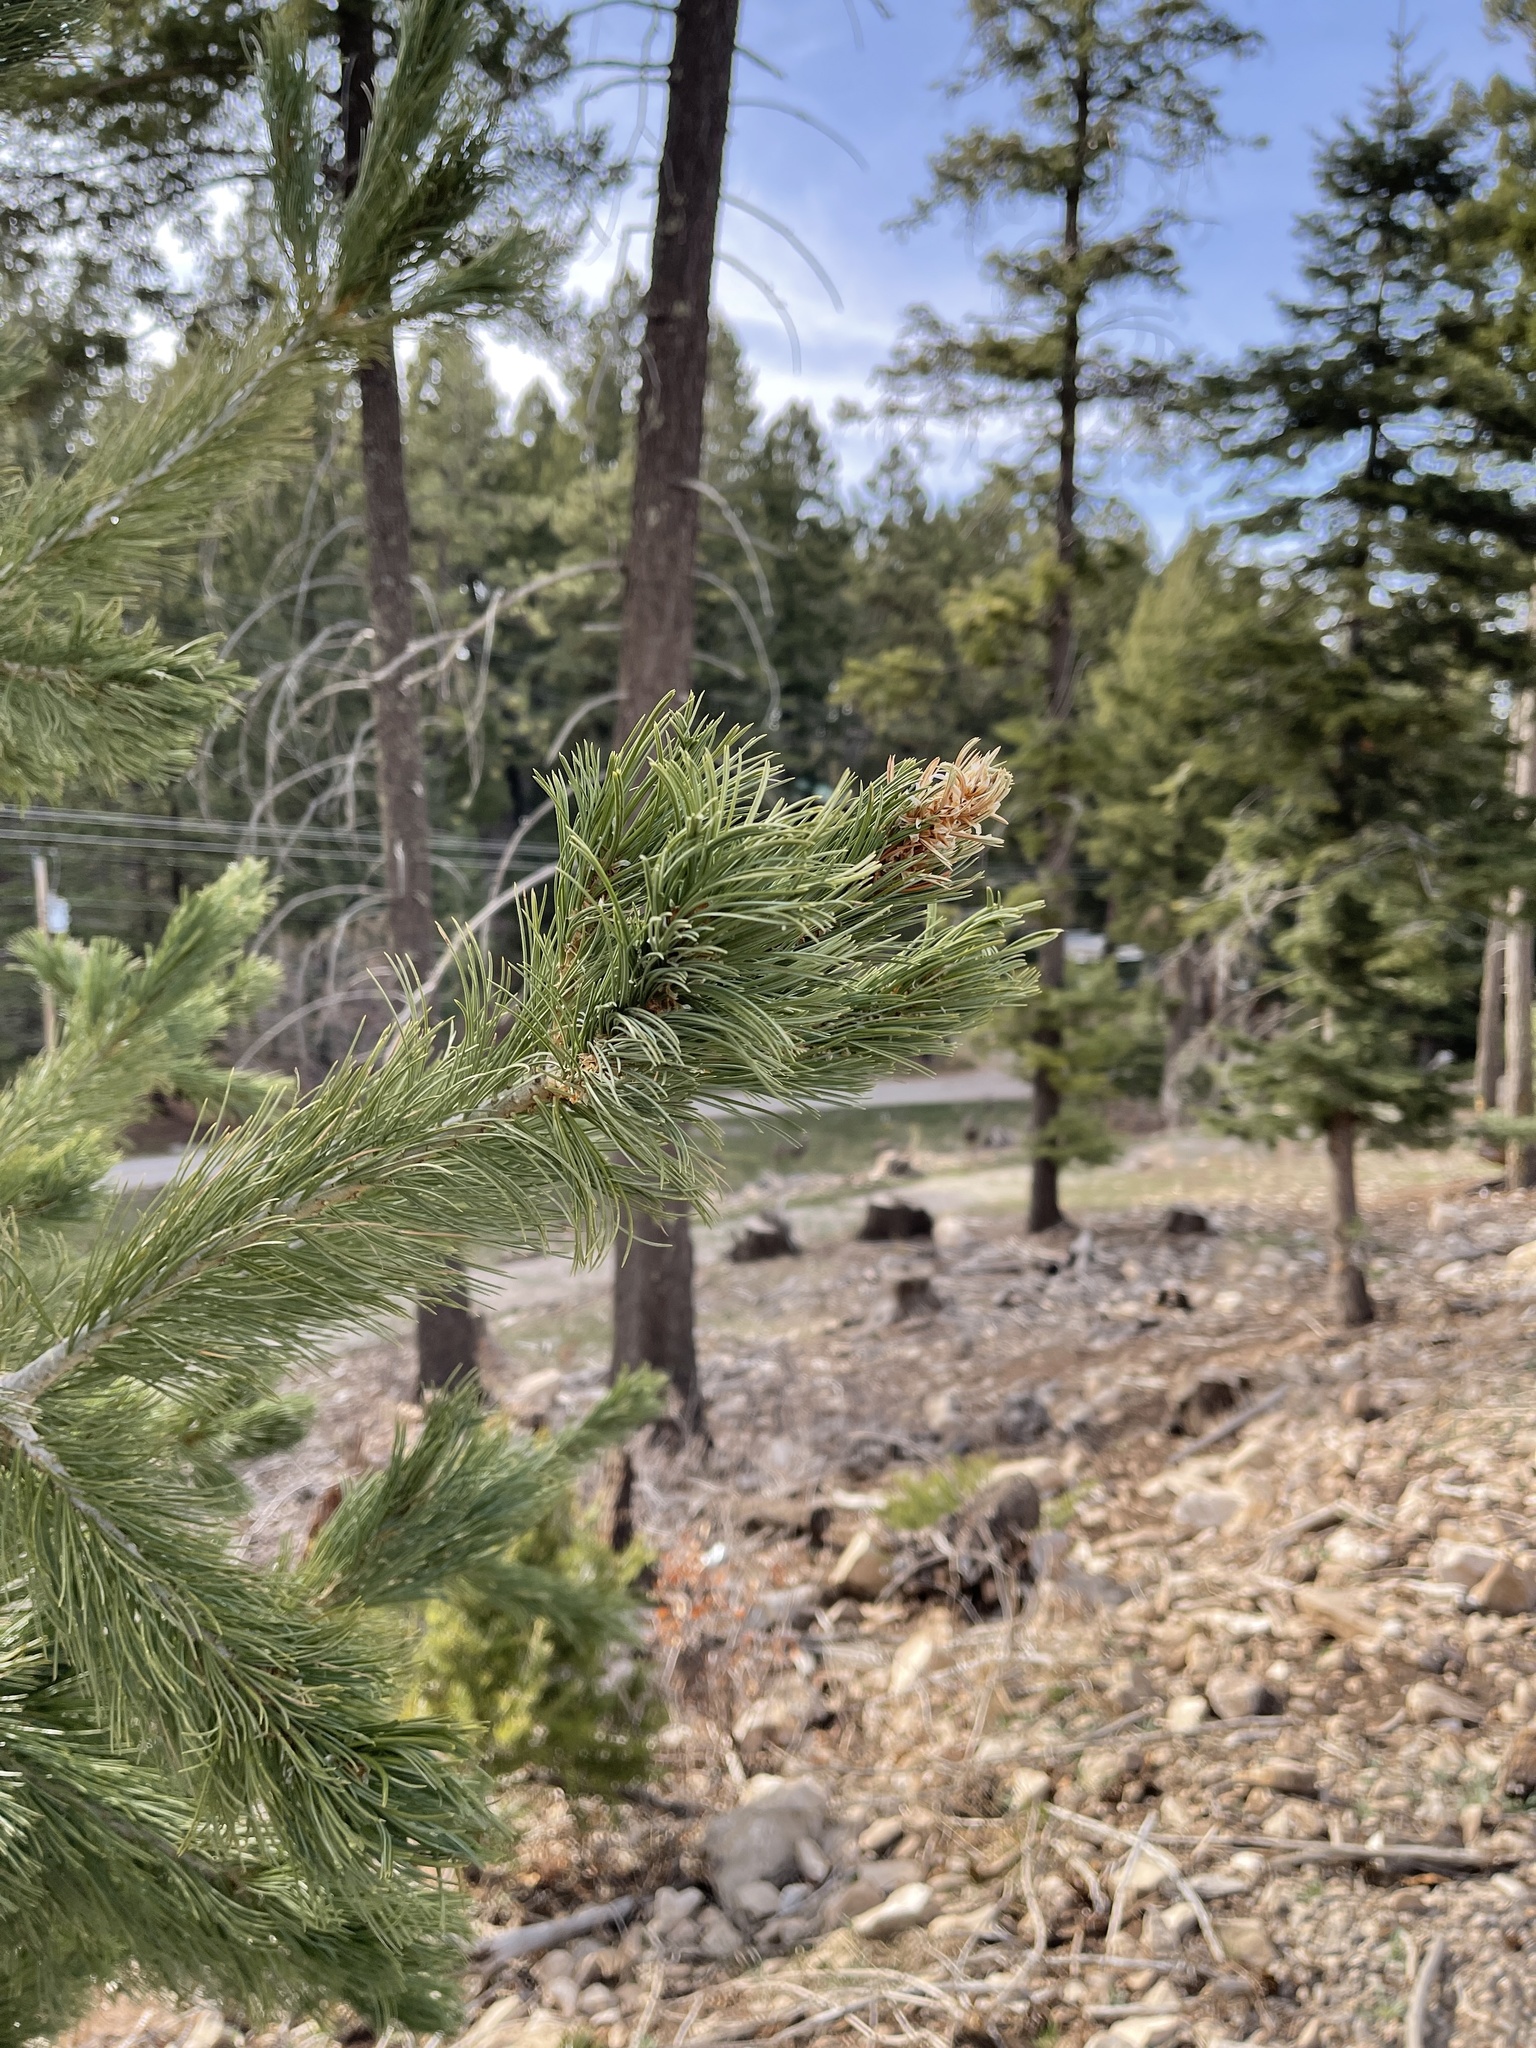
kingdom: Plantae
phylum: Tracheophyta
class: Pinopsida
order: Pinales
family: Pinaceae
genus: Pinus
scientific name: Pinus strobiformis
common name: Southwestern white pine
